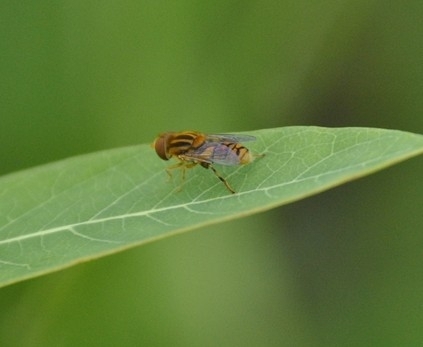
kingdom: Animalia
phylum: Arthropoda
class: Insecta
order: Diptera
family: Syrphidae
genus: Parhelophilus
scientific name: Parhelophilus integer
